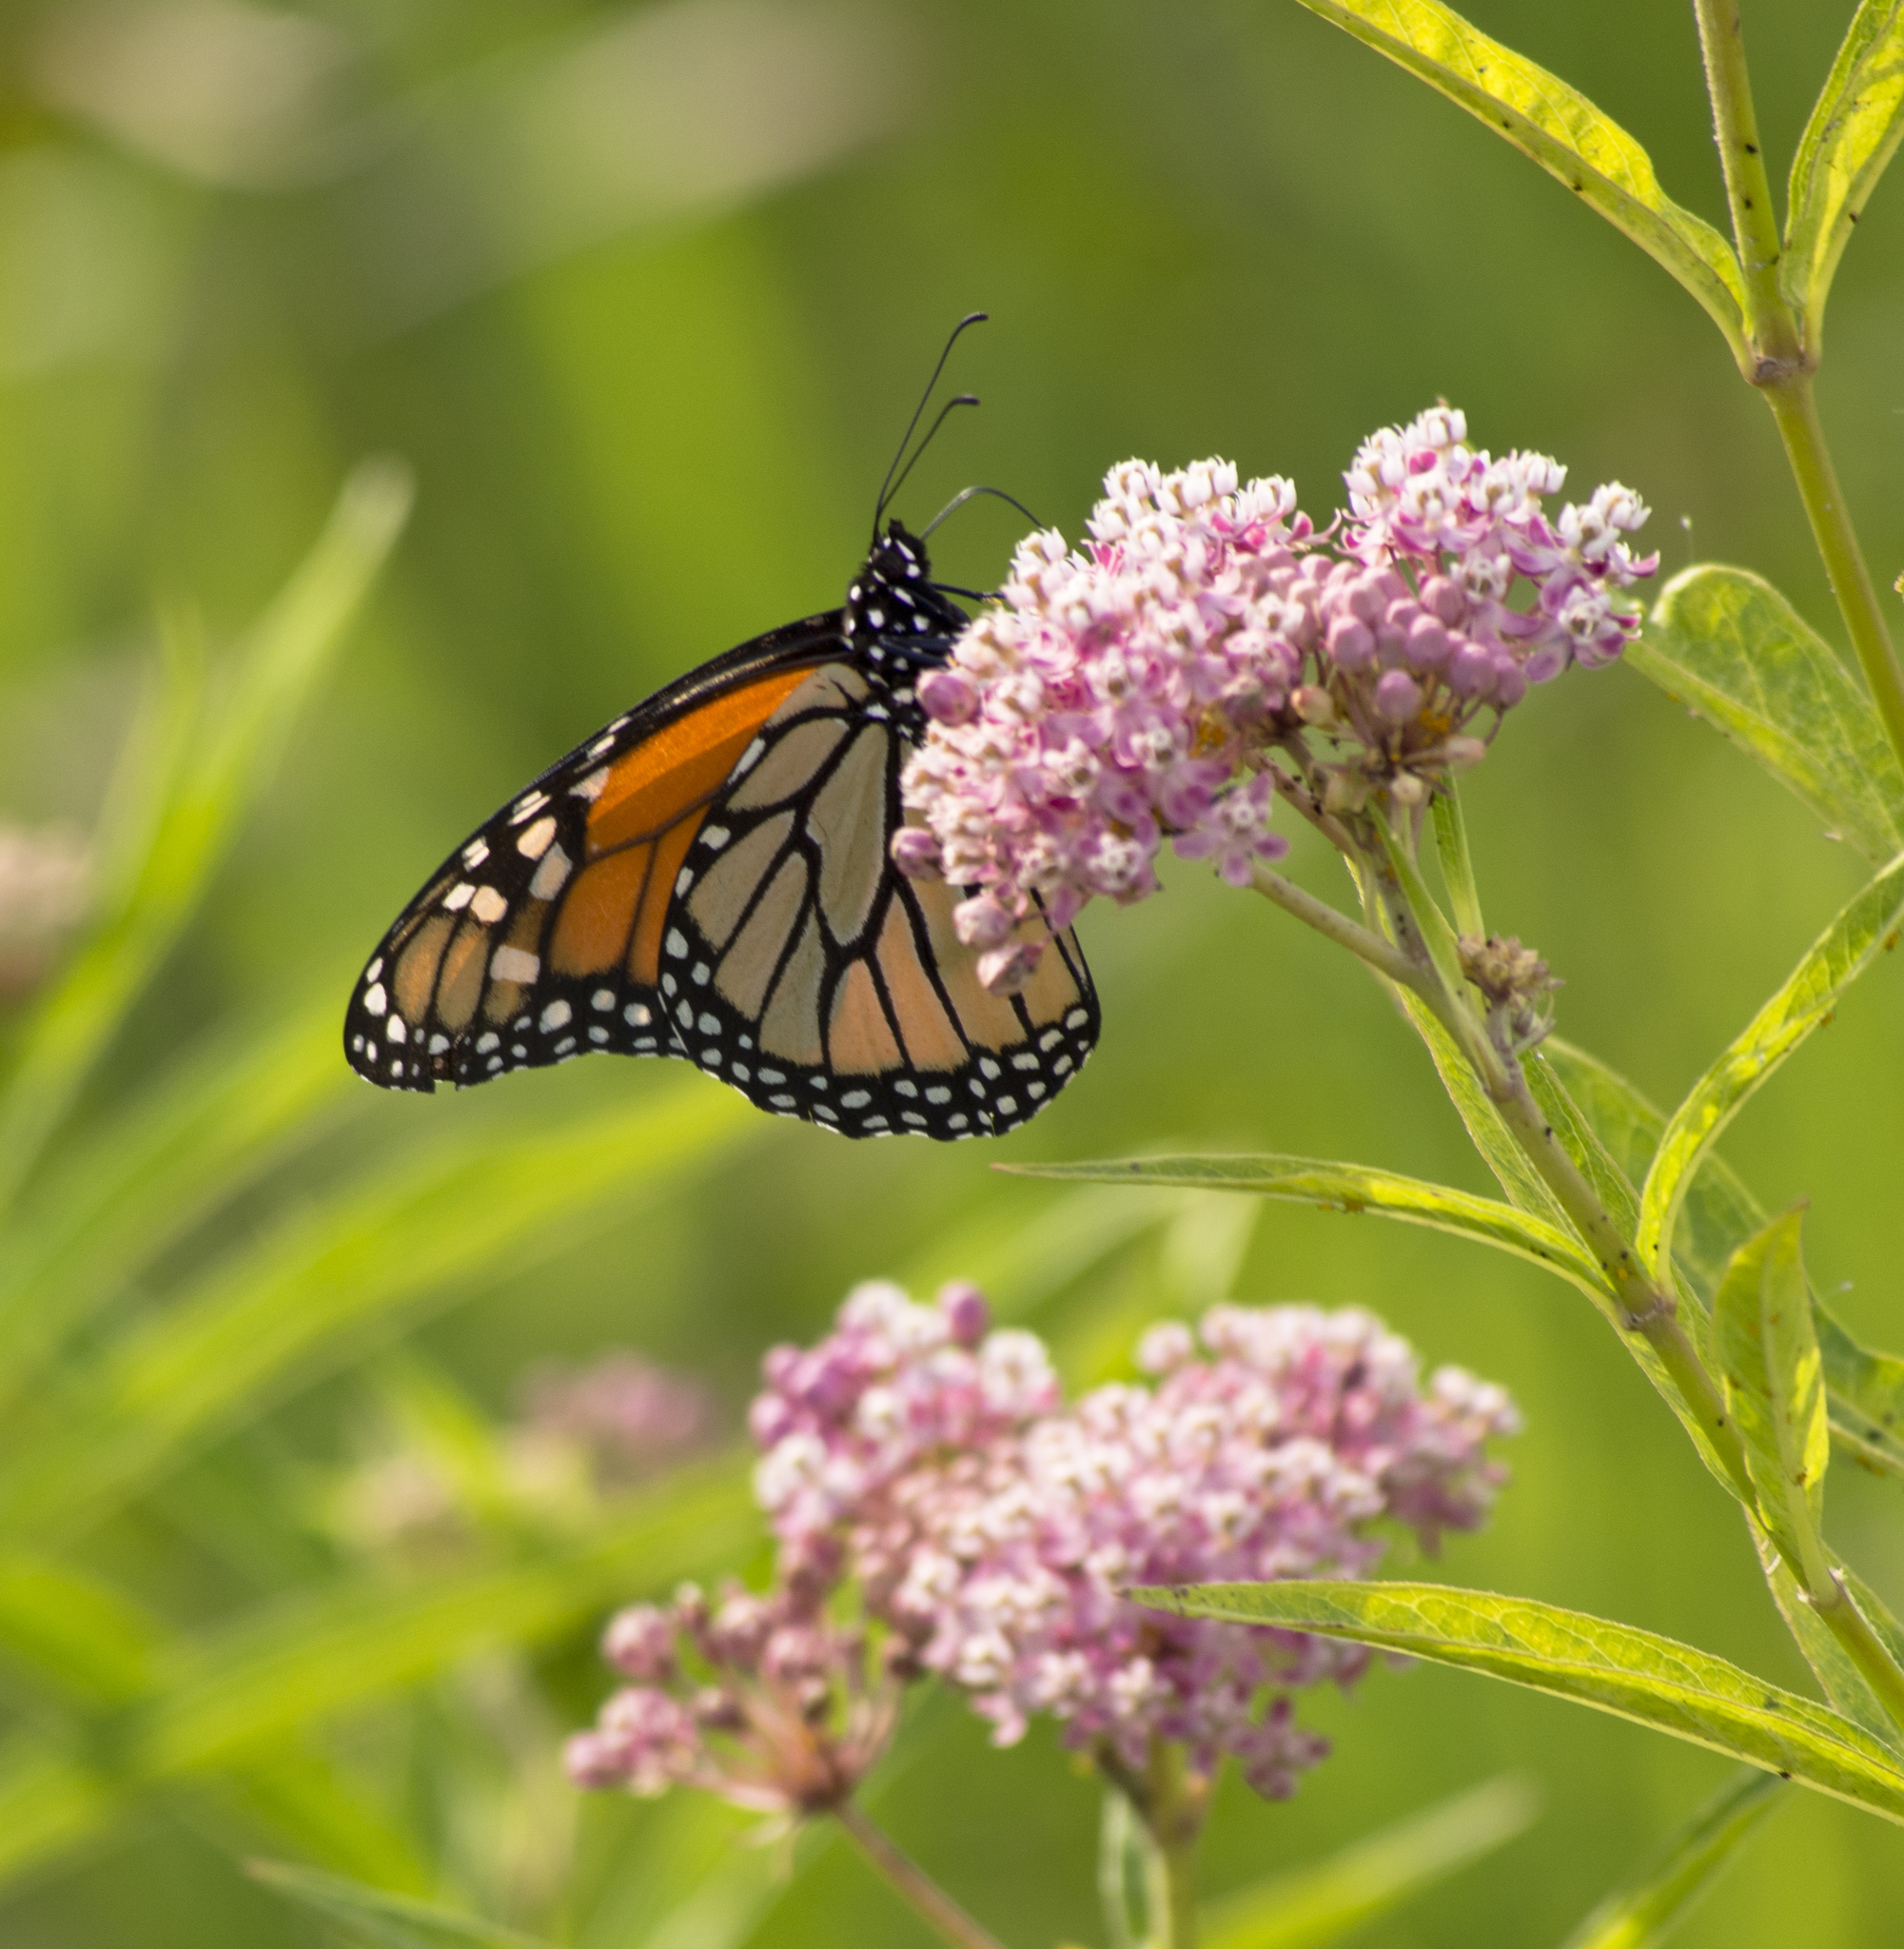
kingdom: Animalia
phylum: Arthropoda
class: Insecta
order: Lepidoptera
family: Nymphalidae
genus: Danaus
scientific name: Danaus plexippus
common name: Monarch
